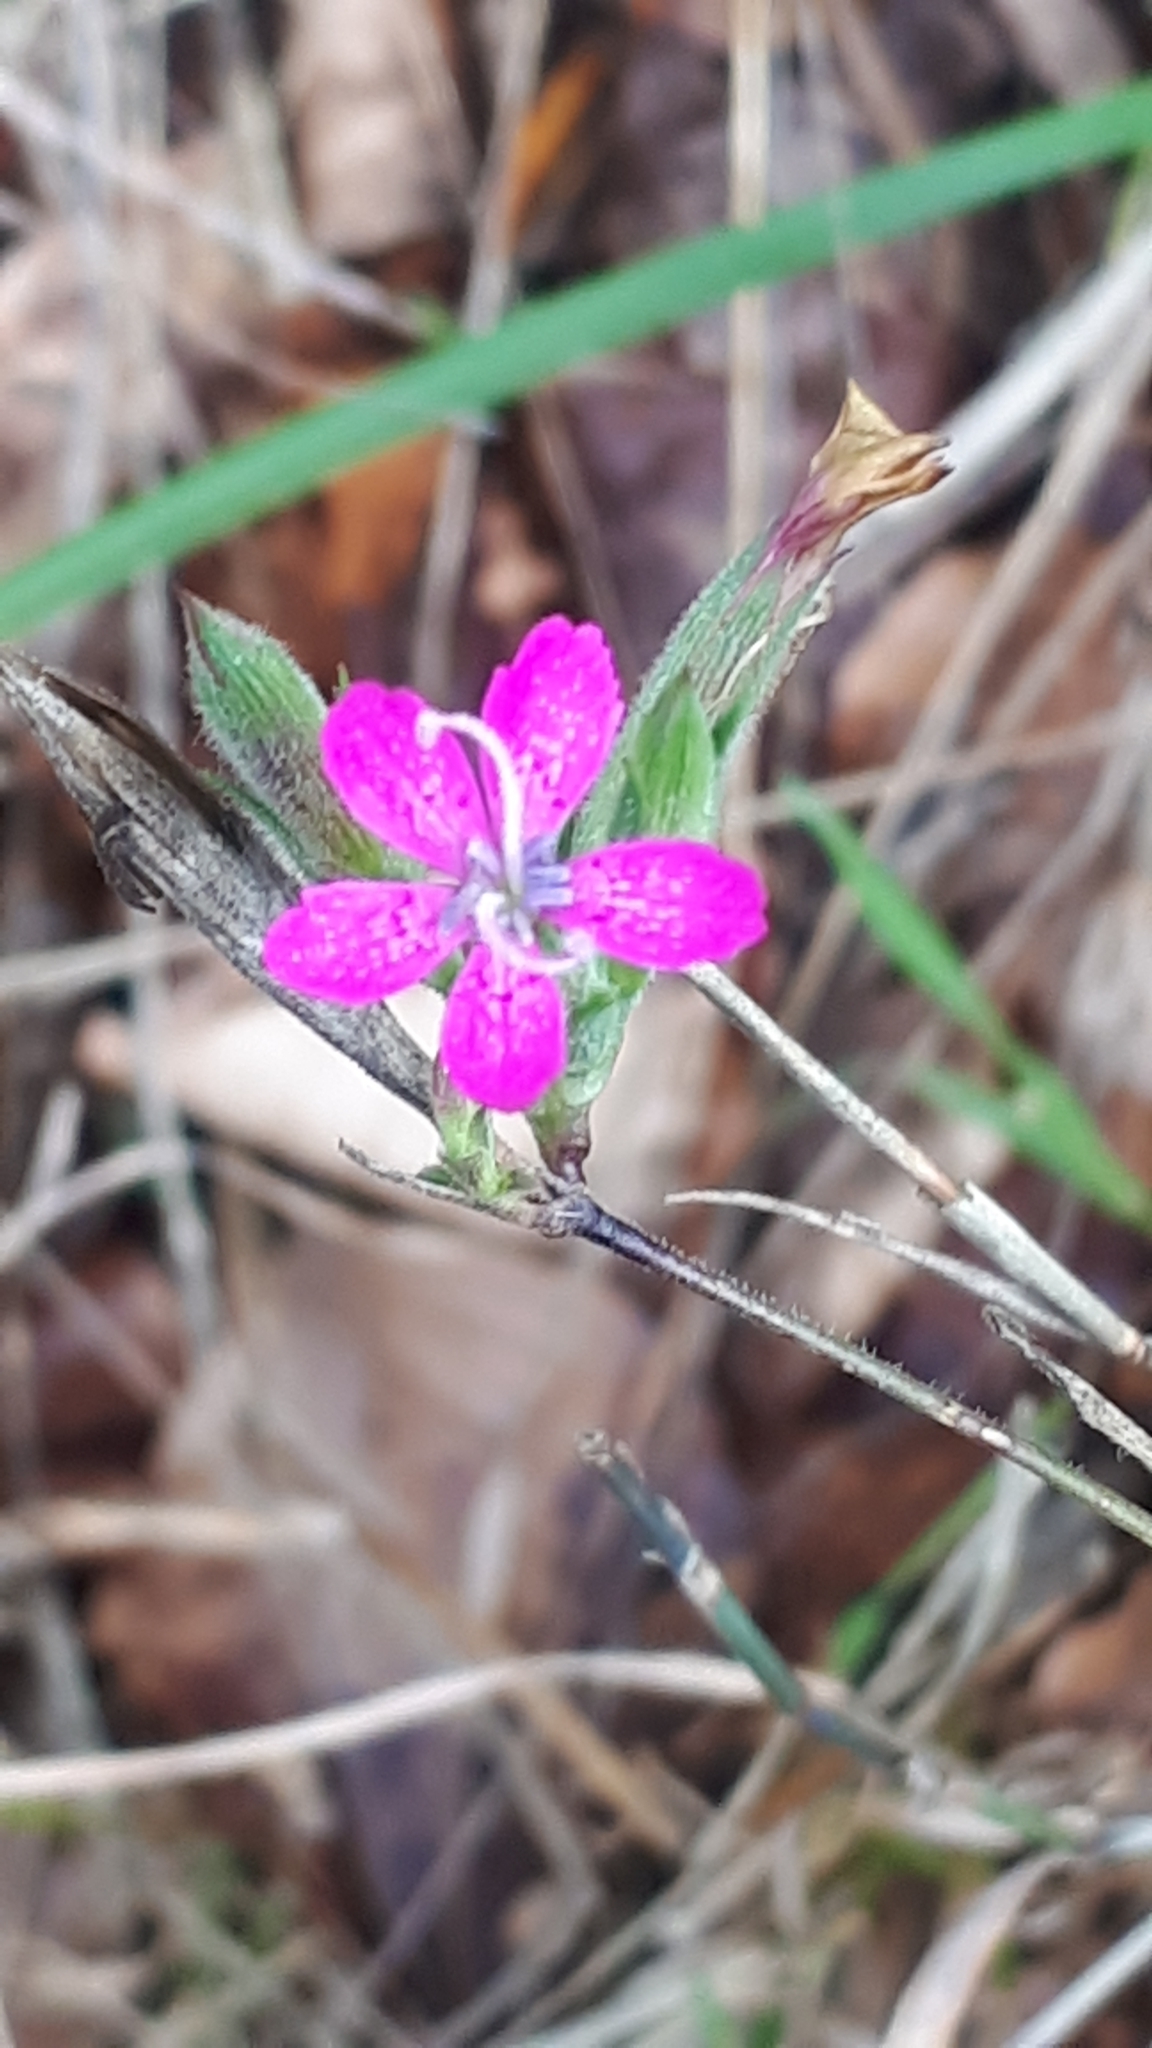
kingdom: Plantae
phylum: Tracheophyta
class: Magnoliopsida
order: Caryophyllales
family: Caryophyllaceae
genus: Dianthus
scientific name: Dianthus armeria
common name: Deptford pink
